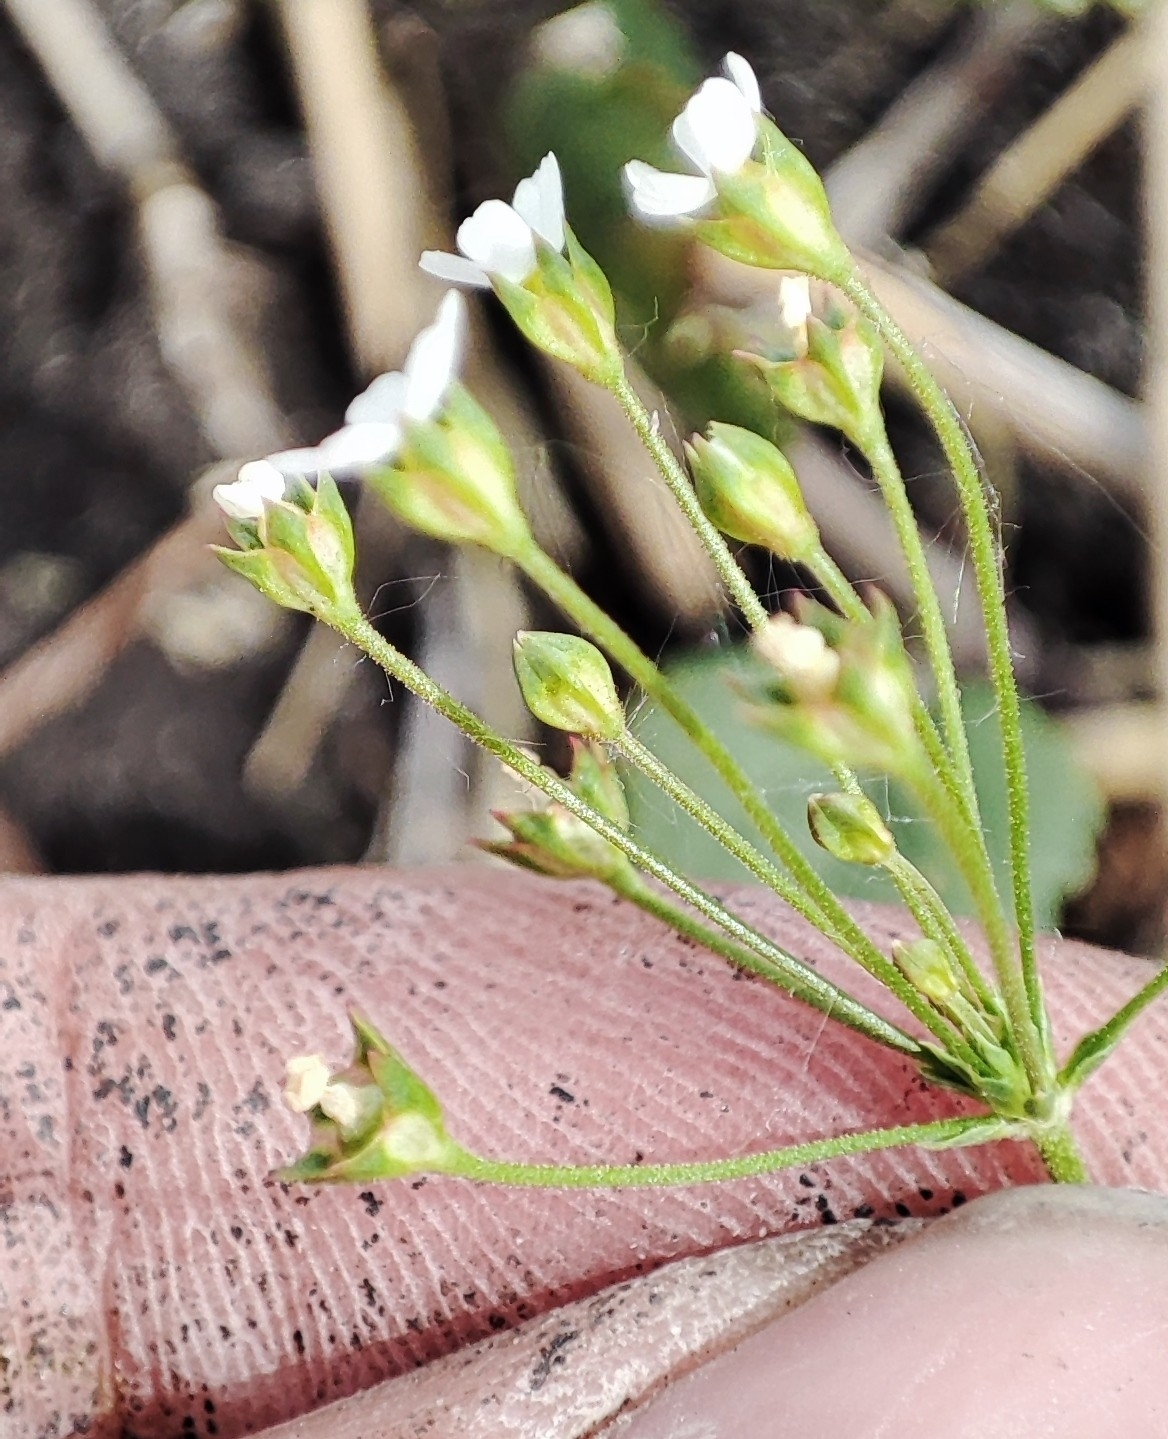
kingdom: Plantae
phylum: Tracheophyta
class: Magnoliopsida
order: Ericales
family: Primulaceae
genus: Androsace
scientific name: Androsace septentrionalis
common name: Hairy northern fairy-candelabra
